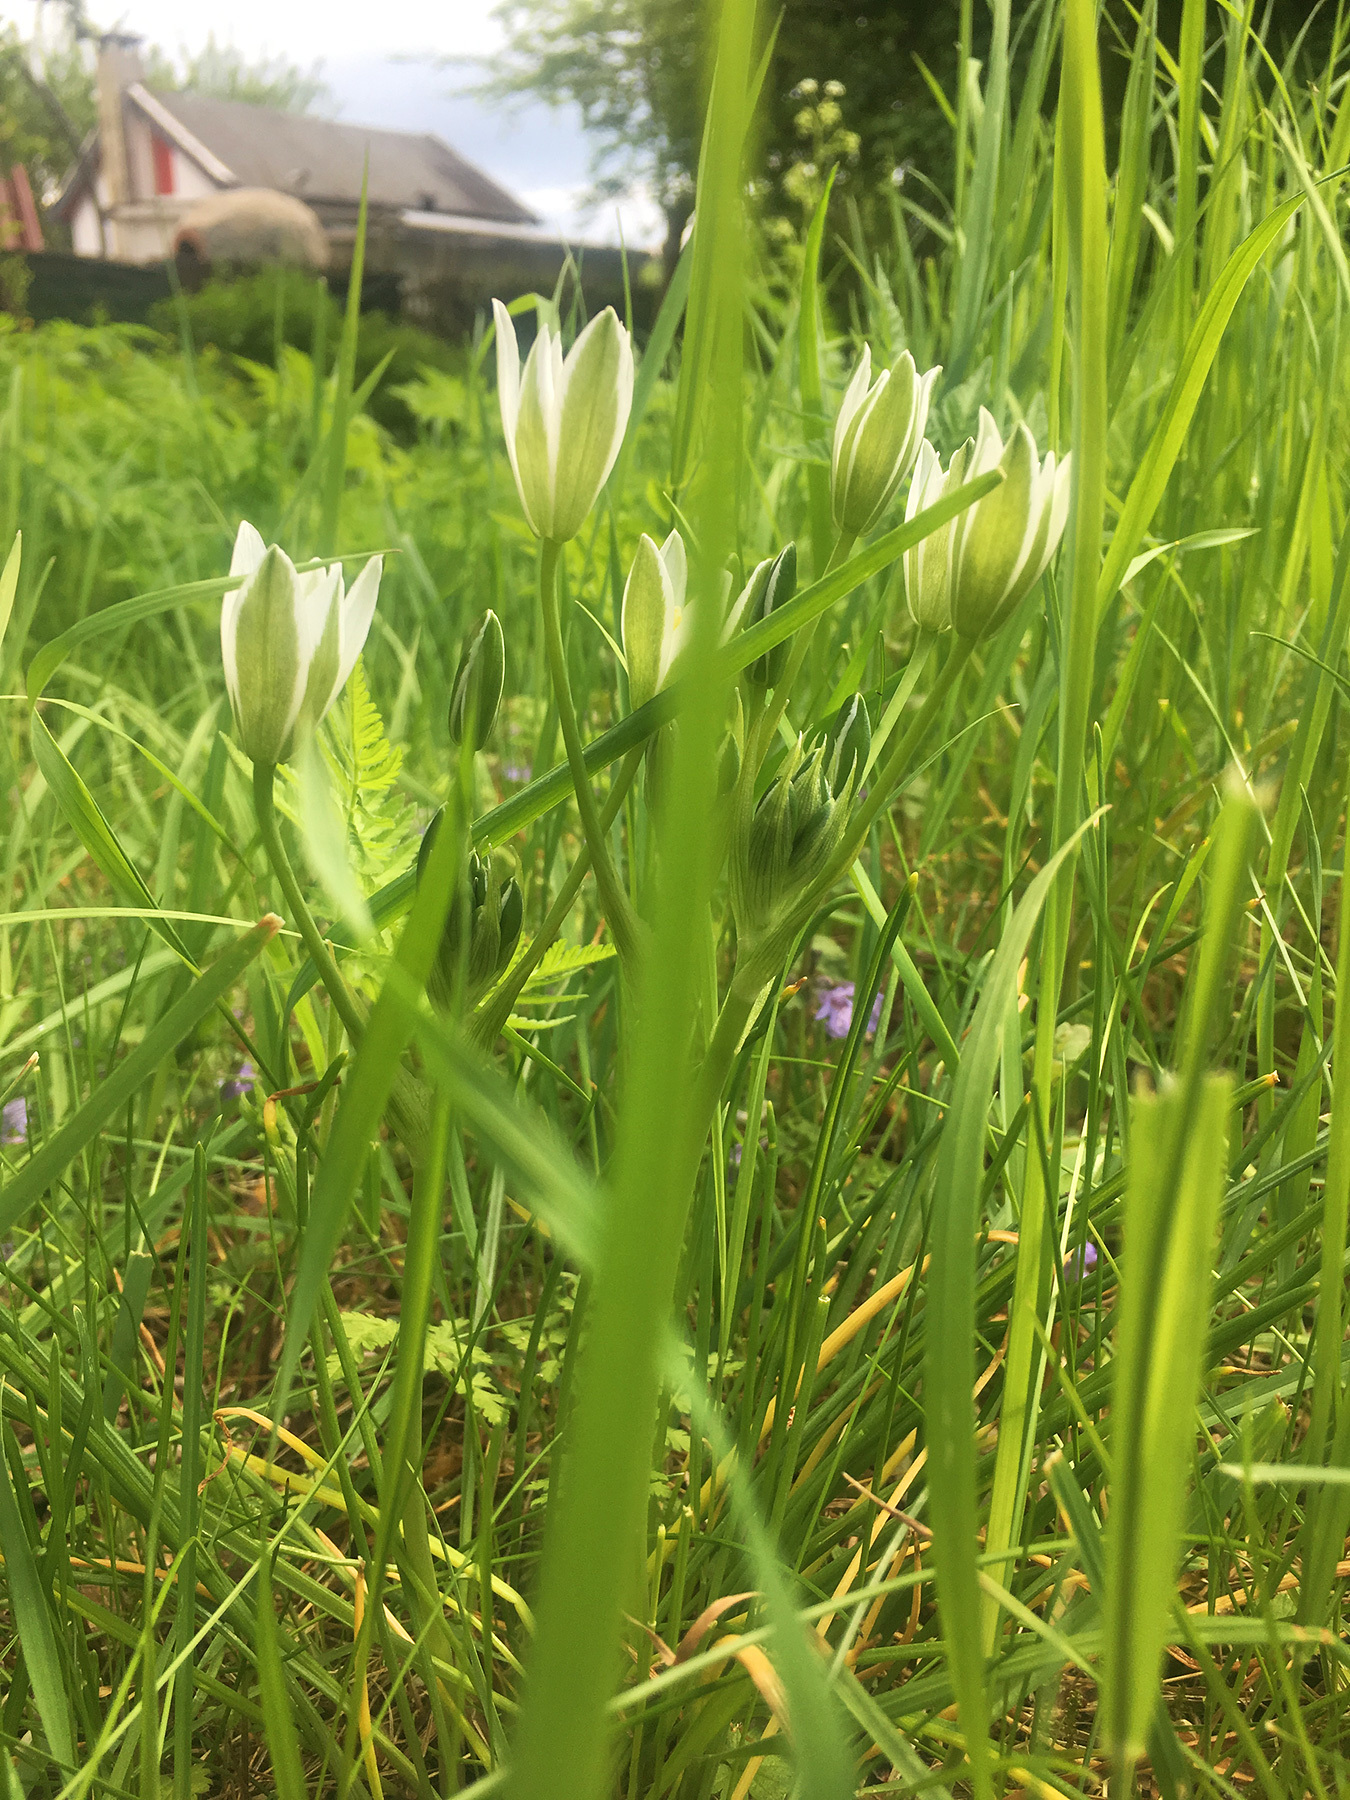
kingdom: Plantae
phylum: Tracheophyta
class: Liliopsida
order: Asparagales
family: Asparagaceae
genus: Ornithogalum
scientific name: Ornithogalum umbellatum
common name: Garden star-of-bethlehem
